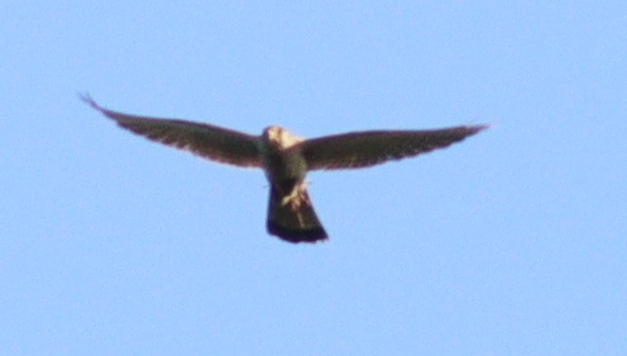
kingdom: Animalia
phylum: Chordata
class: Aves
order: Falconiformes
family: Falconidae
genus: Falco
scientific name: Falco tinnunculus
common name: Common kestrel
